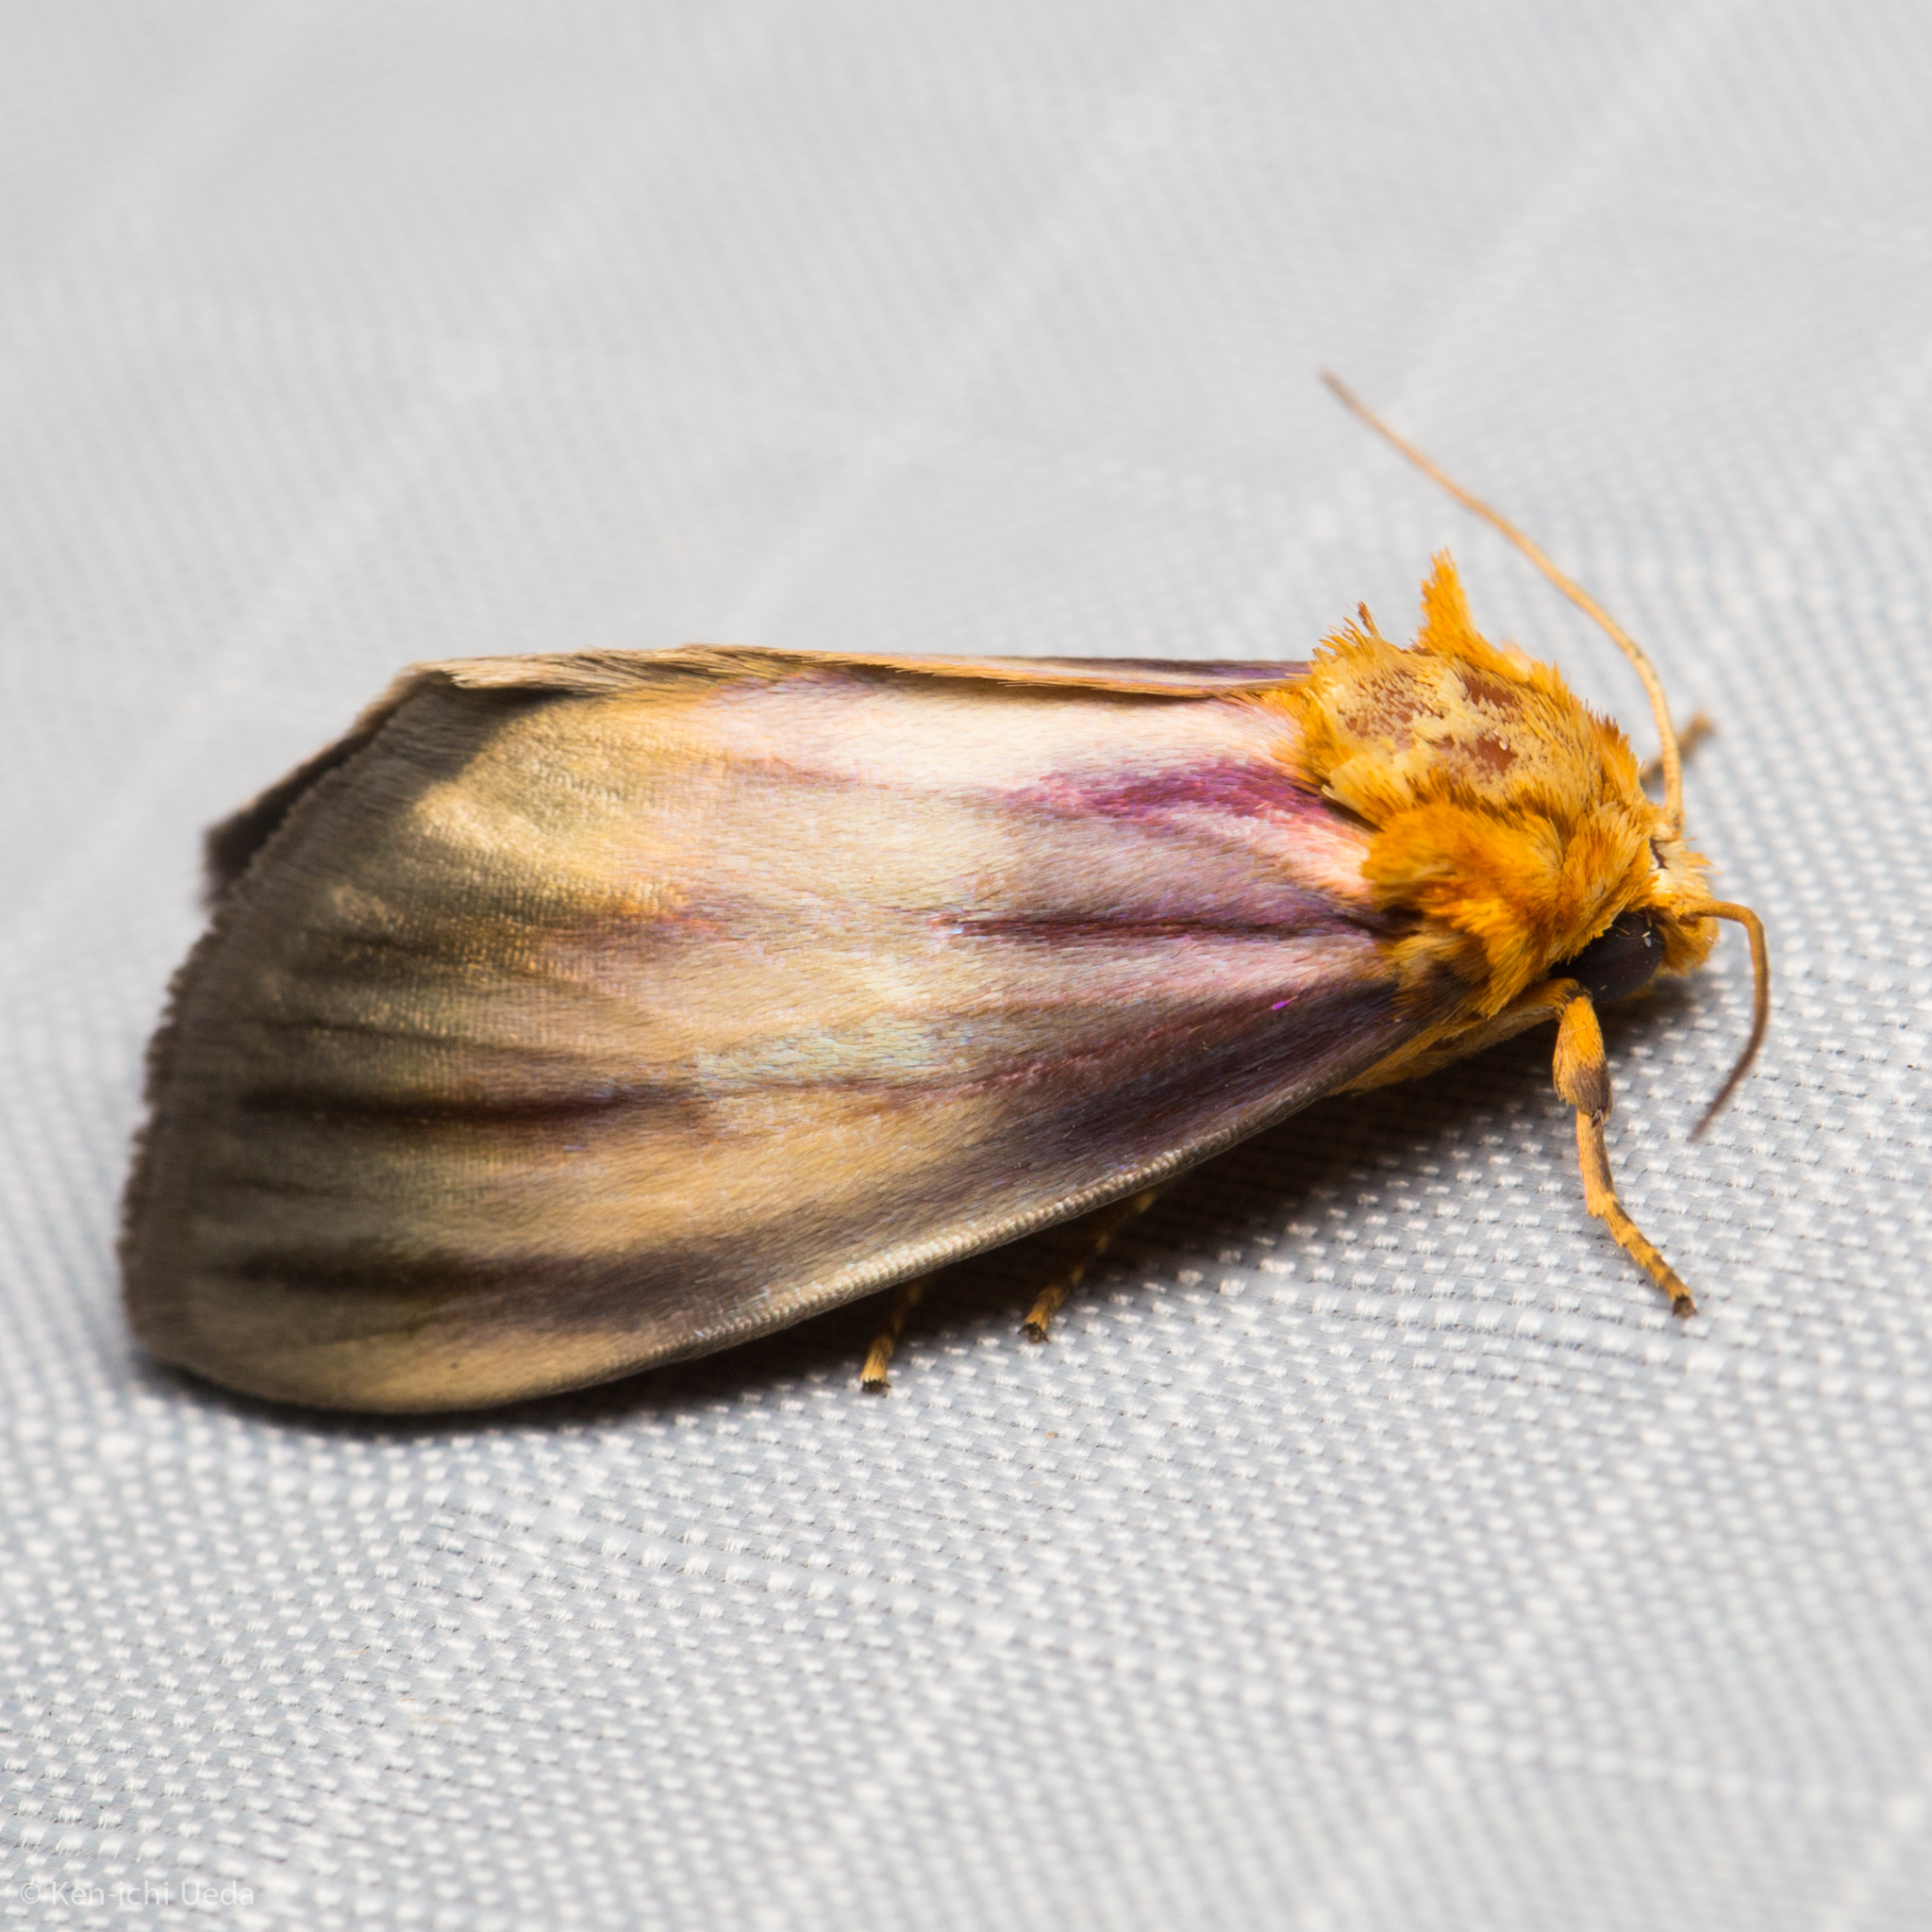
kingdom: Animalia
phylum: Arthropoda
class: Insecta
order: Lepidoptera
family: Noctuidae
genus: Antaplaga
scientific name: Antaplaga plesioglauca
